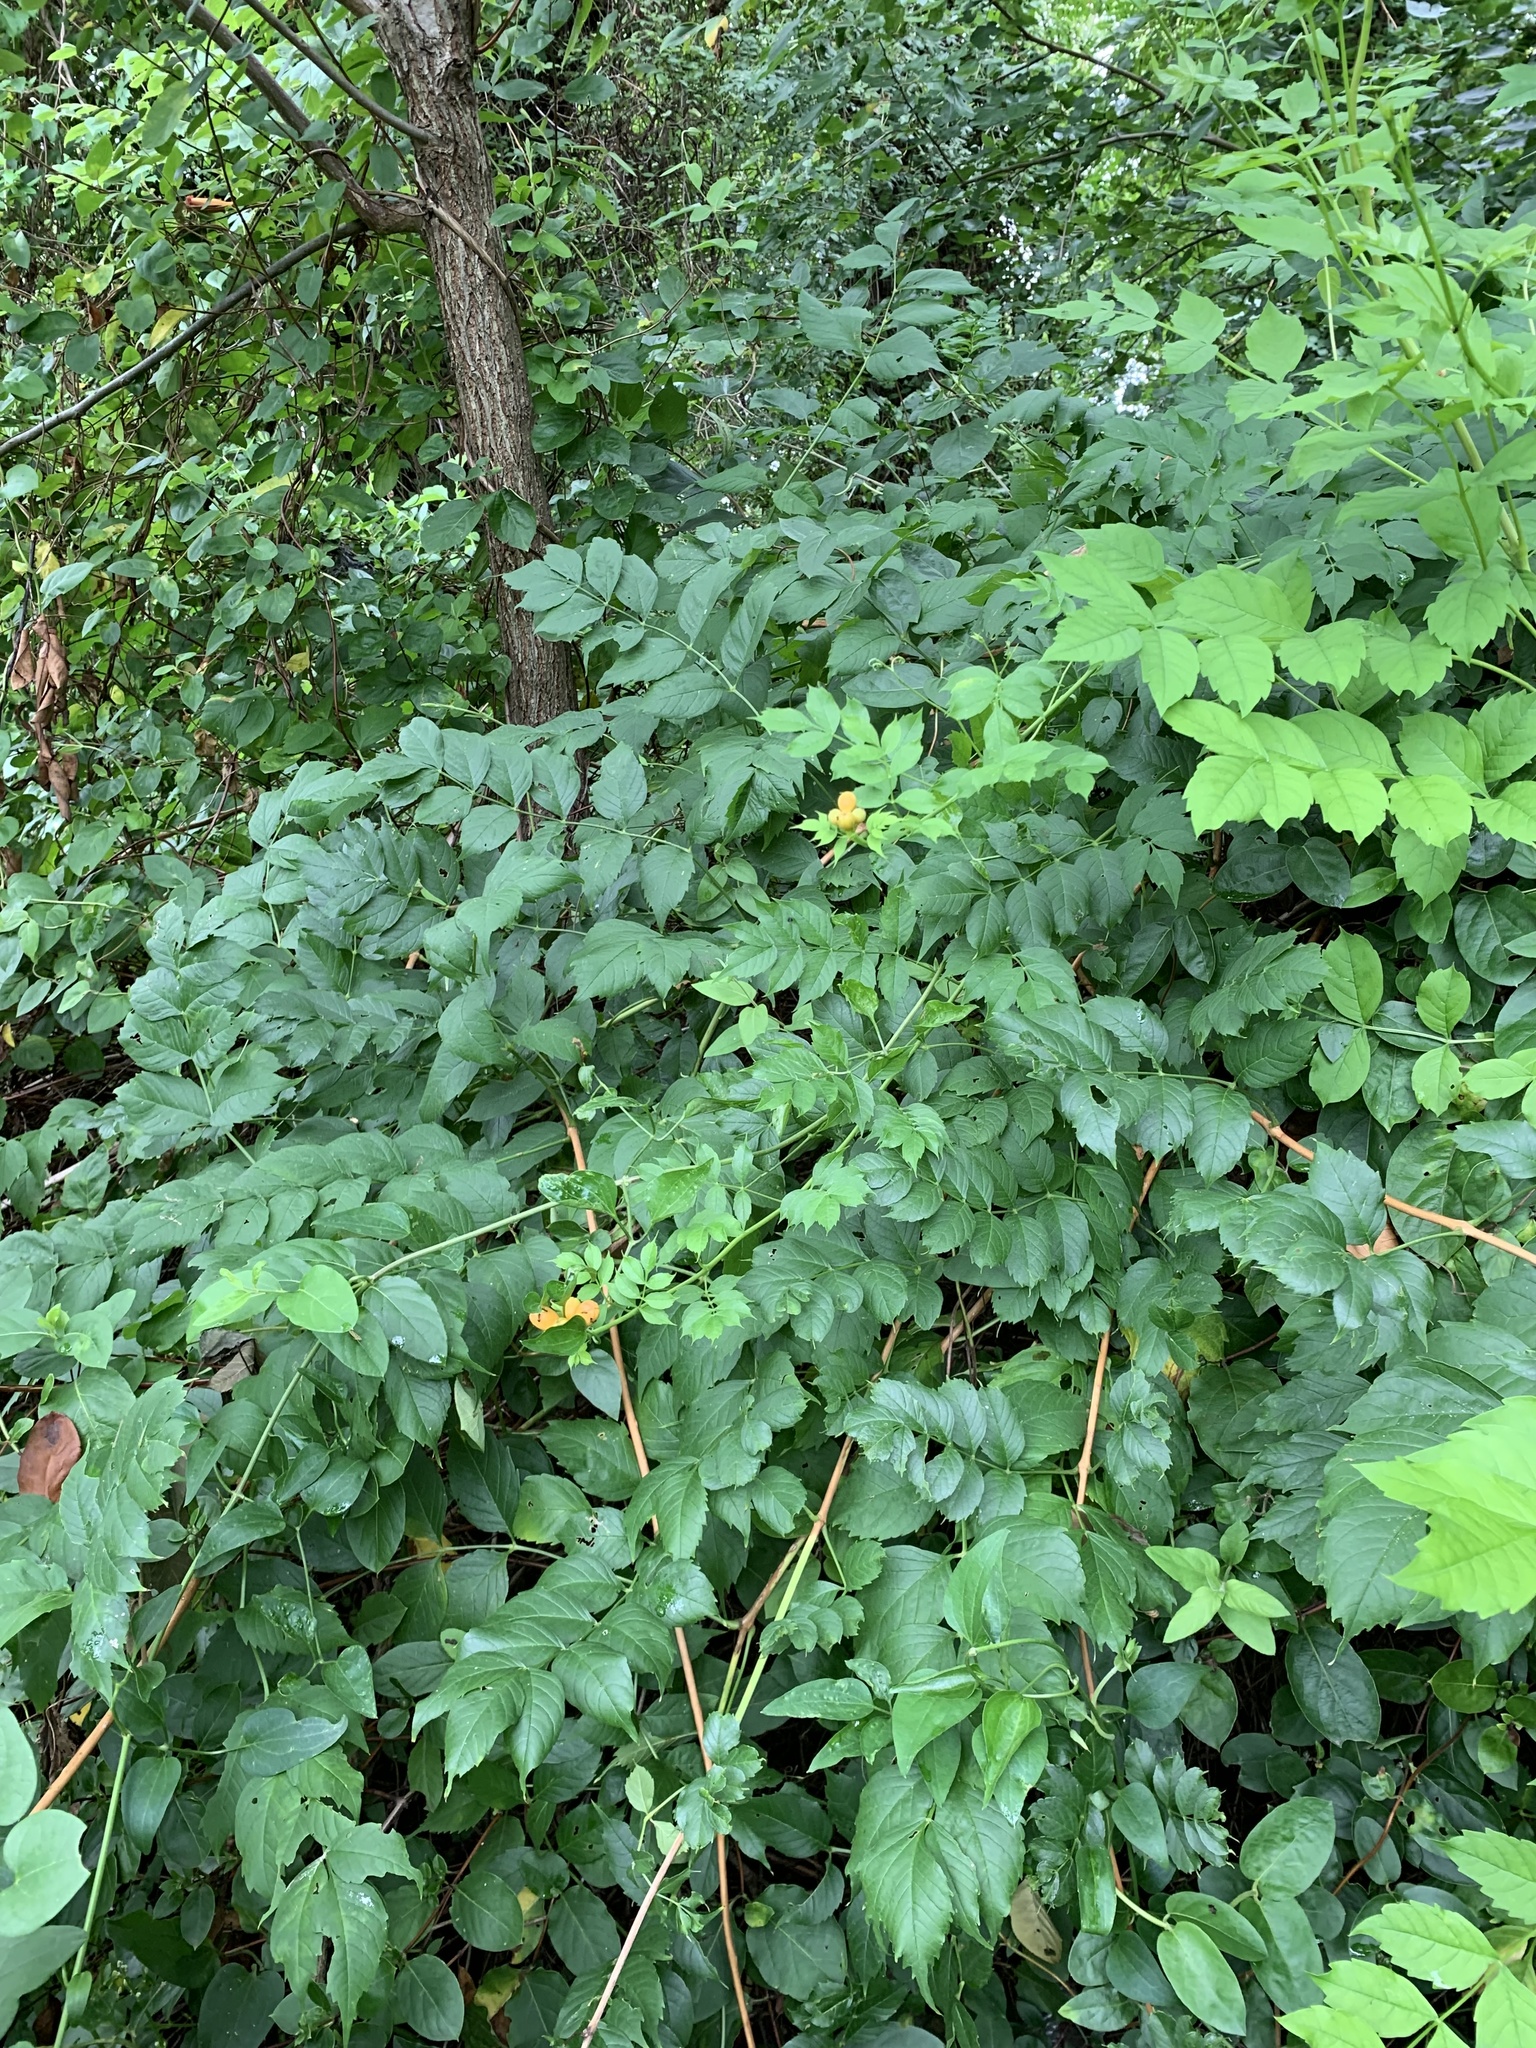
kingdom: Plantae
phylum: Tracheophyta
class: Magnoliopsida
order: Lamiales
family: Bignoniaceae
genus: Campsis
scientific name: Campsis radicans
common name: Trumpet-creeper
